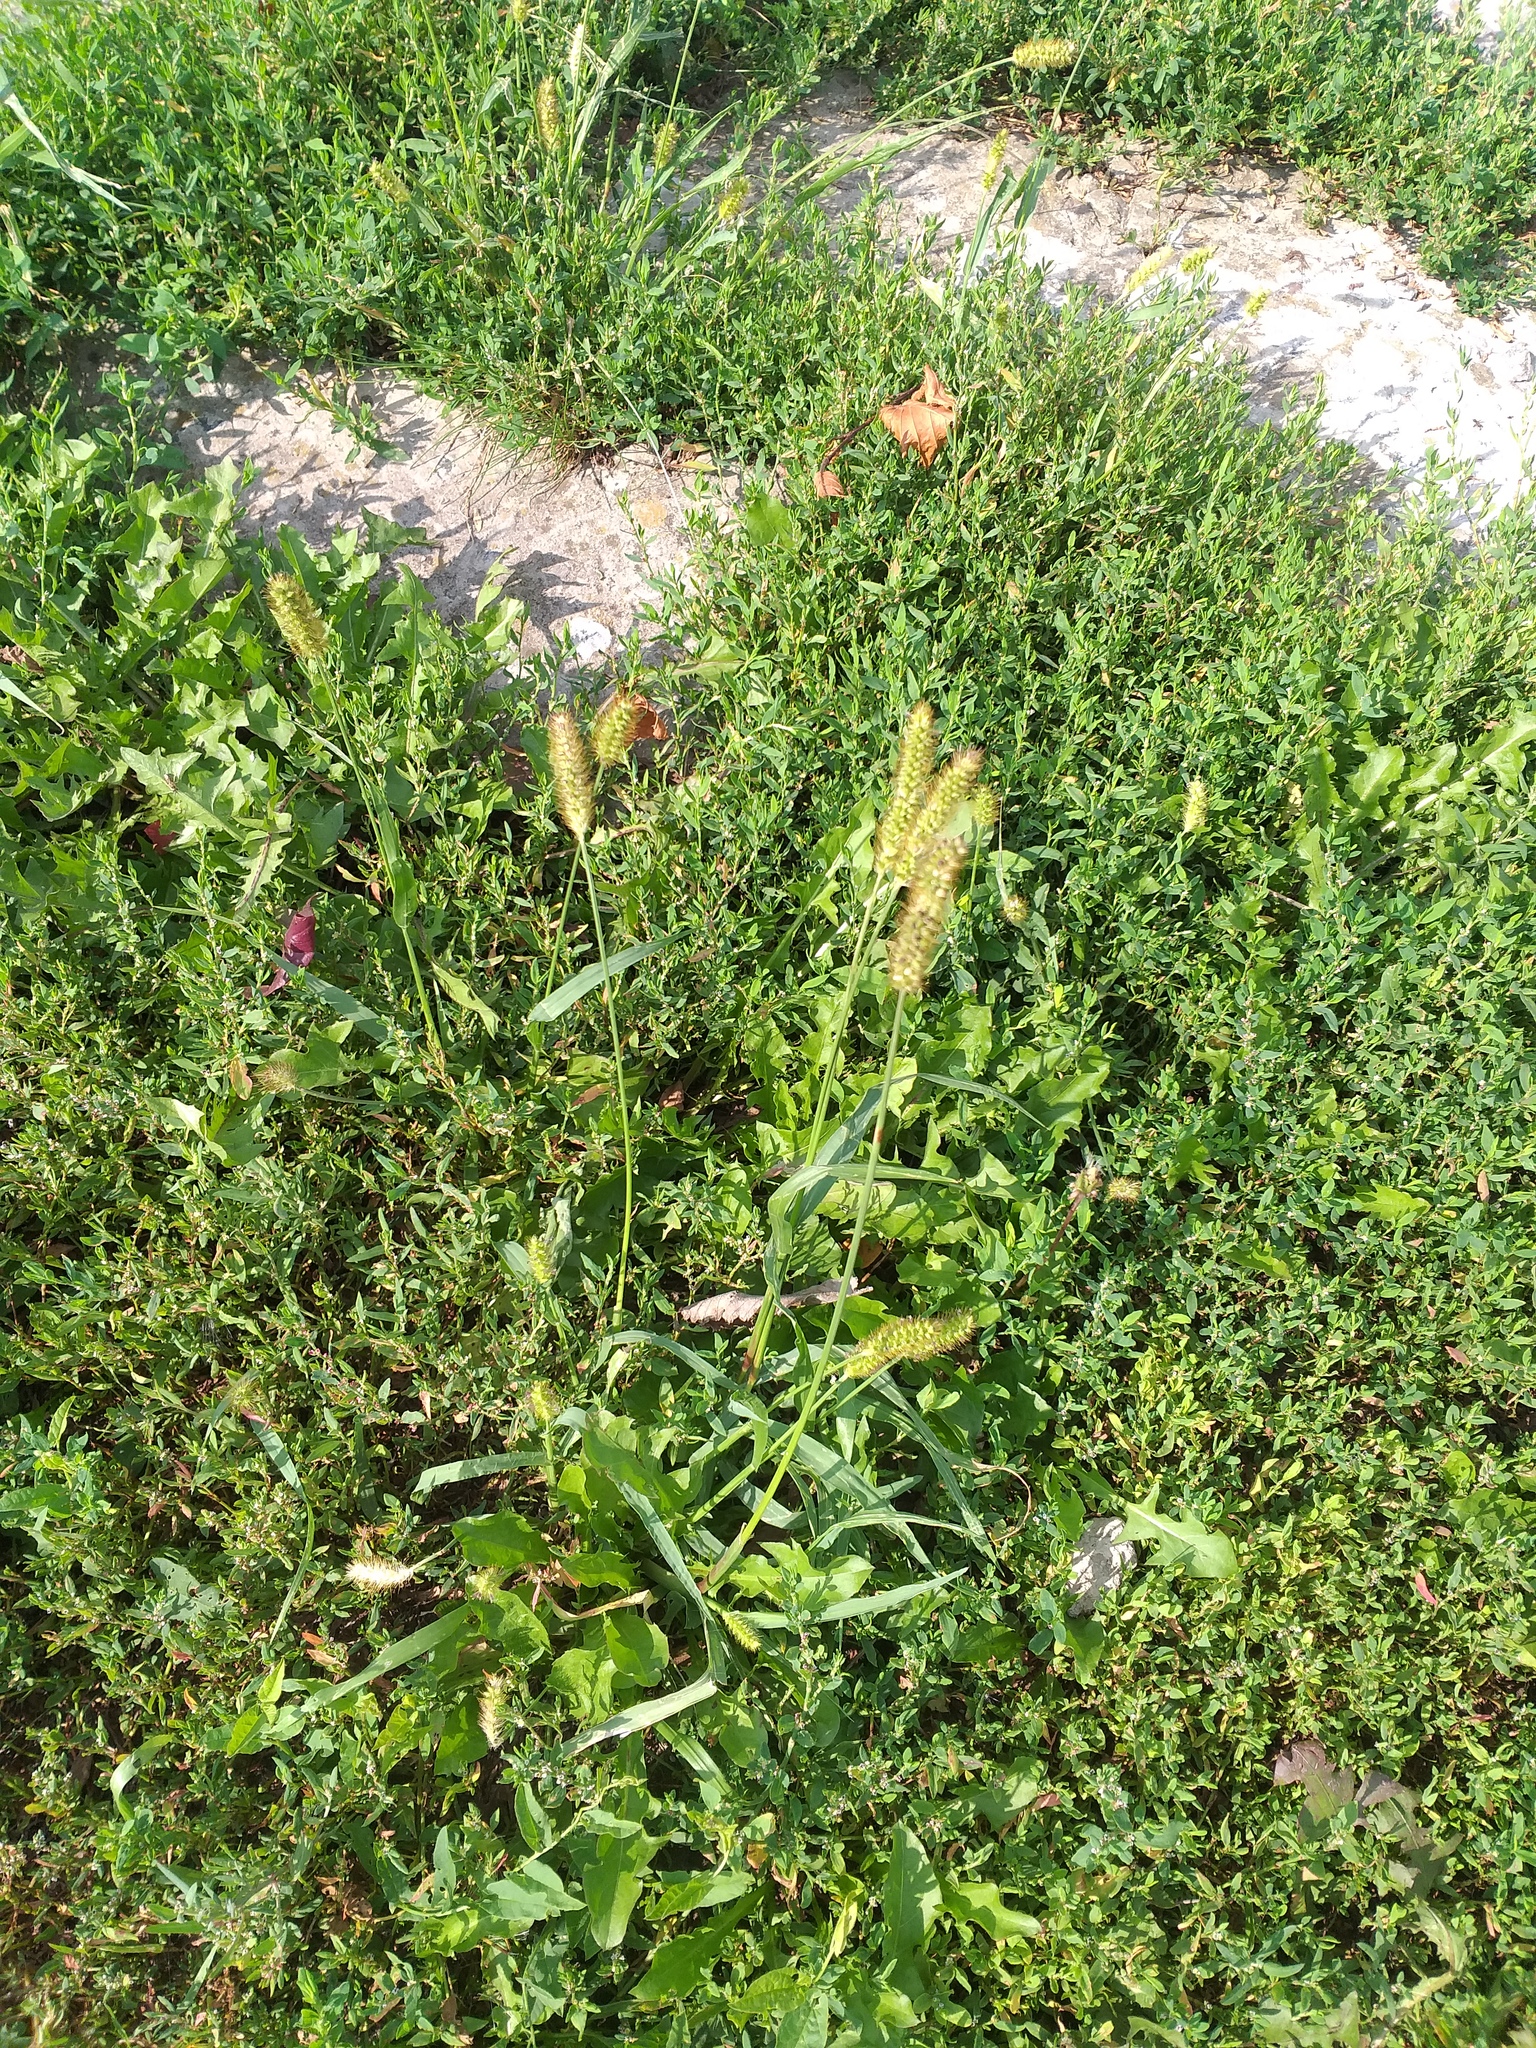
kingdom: Plantae
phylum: Tracheophyta
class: Liliopsida
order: Poales
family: Poaceae
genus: Setaria
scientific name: Setaria pumila
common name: Yellow bristle-grass
